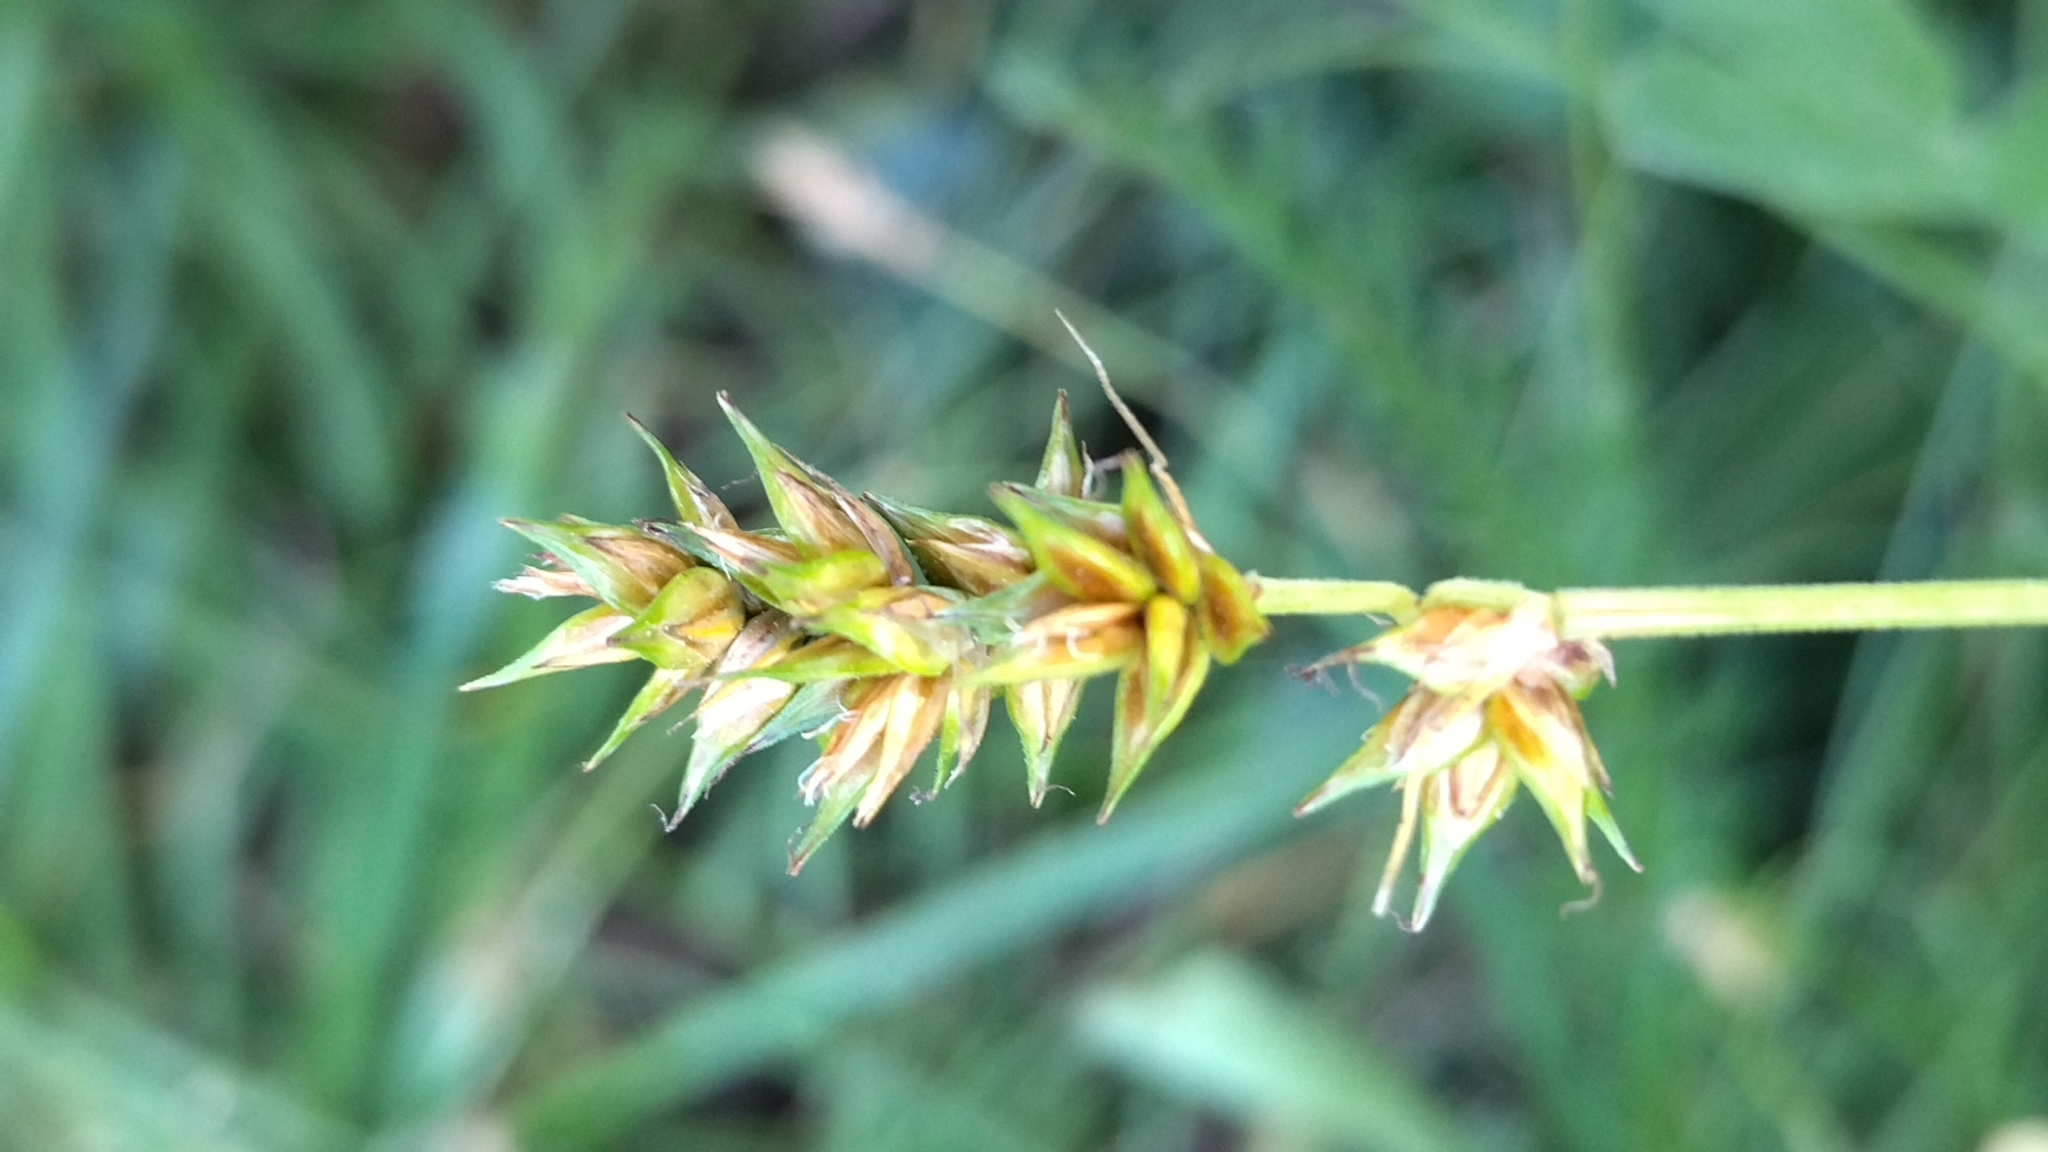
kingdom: Plantae
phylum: Tracheophyta
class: Liliopsida
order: Poales
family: Cyperaceae
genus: Carex
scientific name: Carex spicata
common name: Spiked sedge
